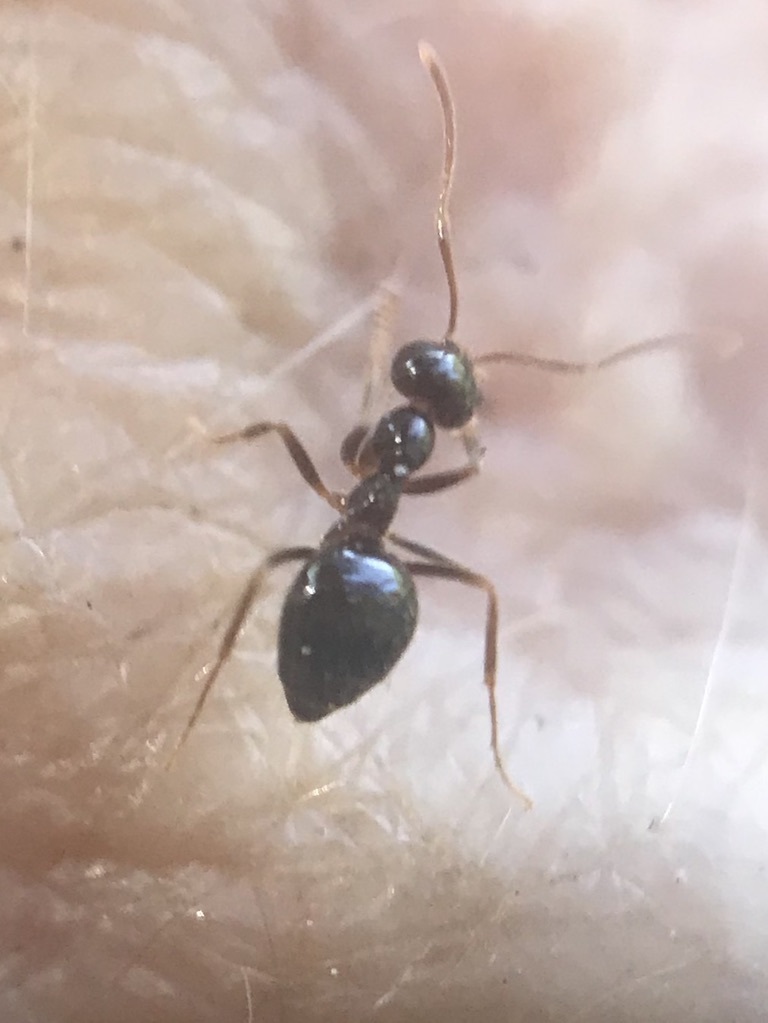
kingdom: Animalia
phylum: Arthropoda
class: Insecta
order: Hymenoptera
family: Formicidae
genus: Prenolepis
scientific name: Prenolepis imparis
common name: Small honey ant
